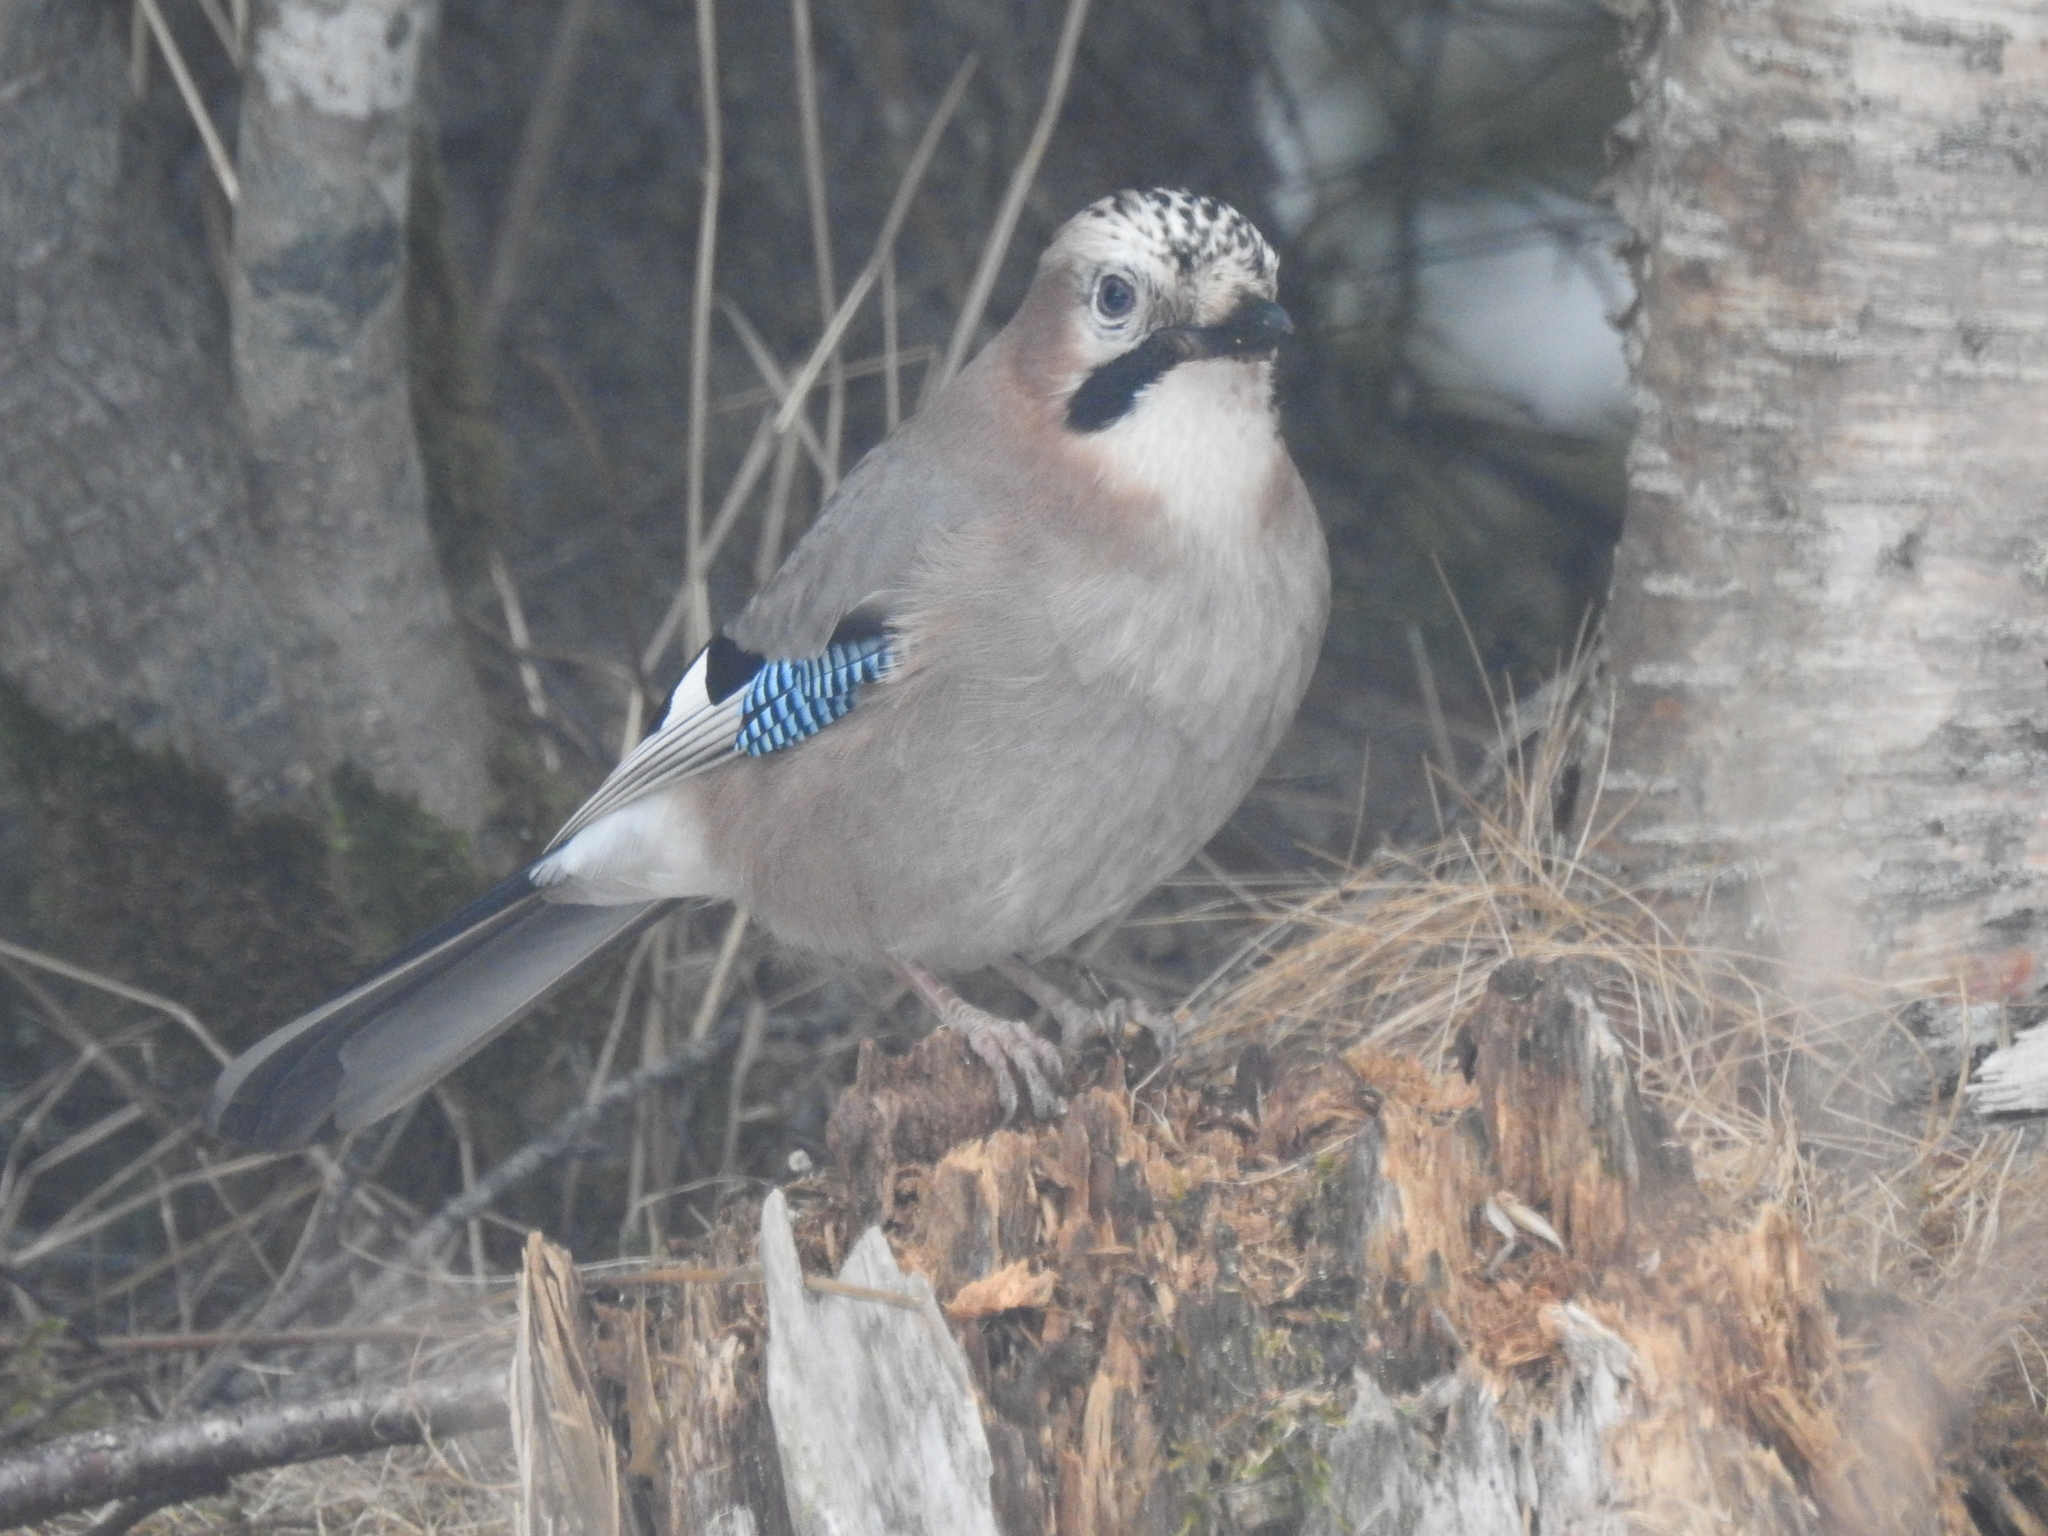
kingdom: Animalia
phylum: Chordata
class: Aves
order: Passeriformes
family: Corvidae
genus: Garrulus
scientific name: Garrulus glandarius
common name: Eurasian jay
